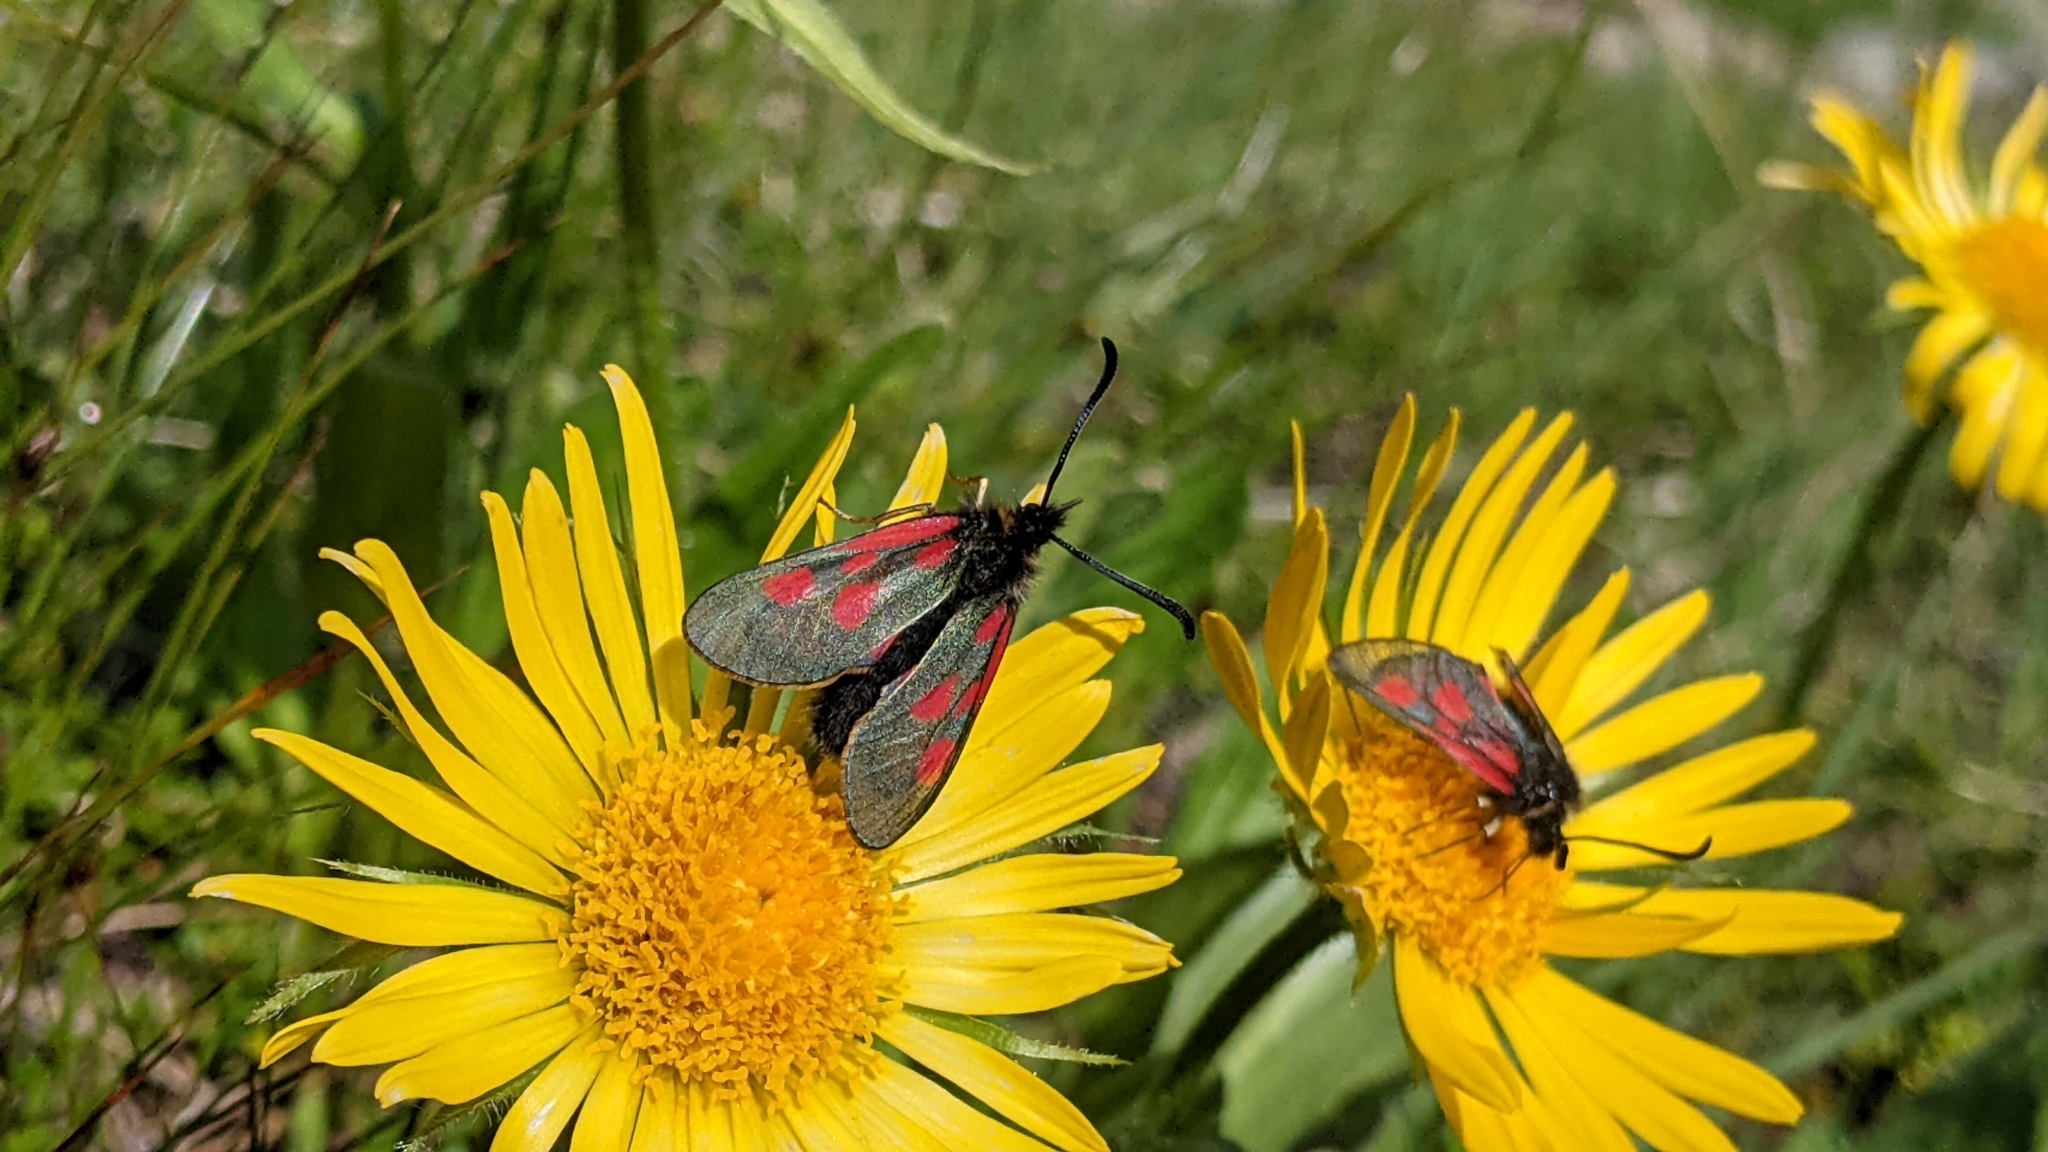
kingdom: Animalia
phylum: Arthropoda
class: Insecta
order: Lepidoptera
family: Zygaenidae
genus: Zygaena
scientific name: Zygaena exulans
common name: Scotch burnet
